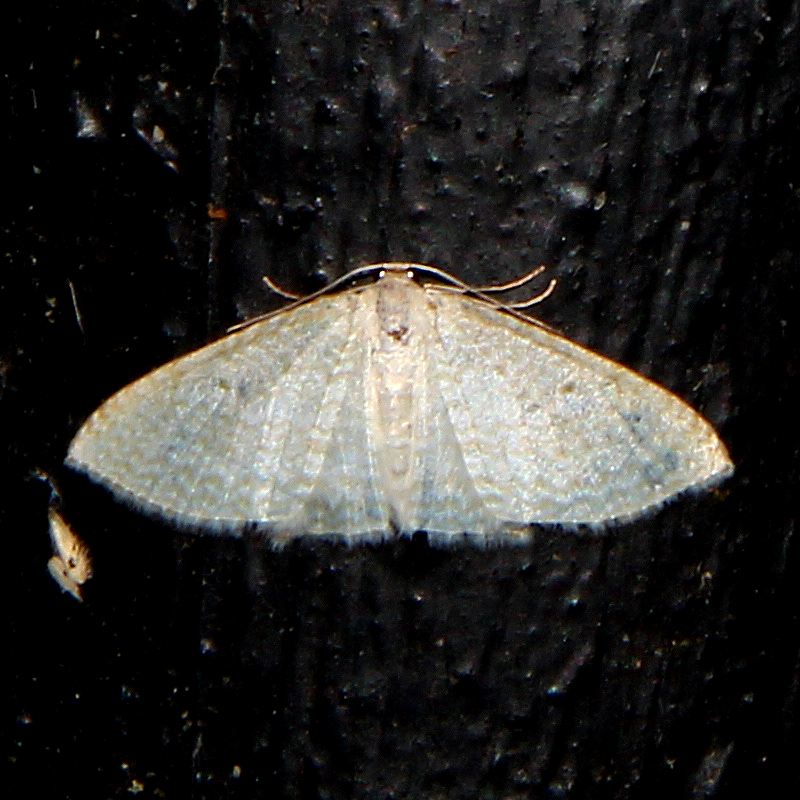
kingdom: Animalia
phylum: Arthropoda
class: Insecta
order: Lepidoptera
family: Geometridae
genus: Poecilasthena
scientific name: Poecilasthena pulchraria
